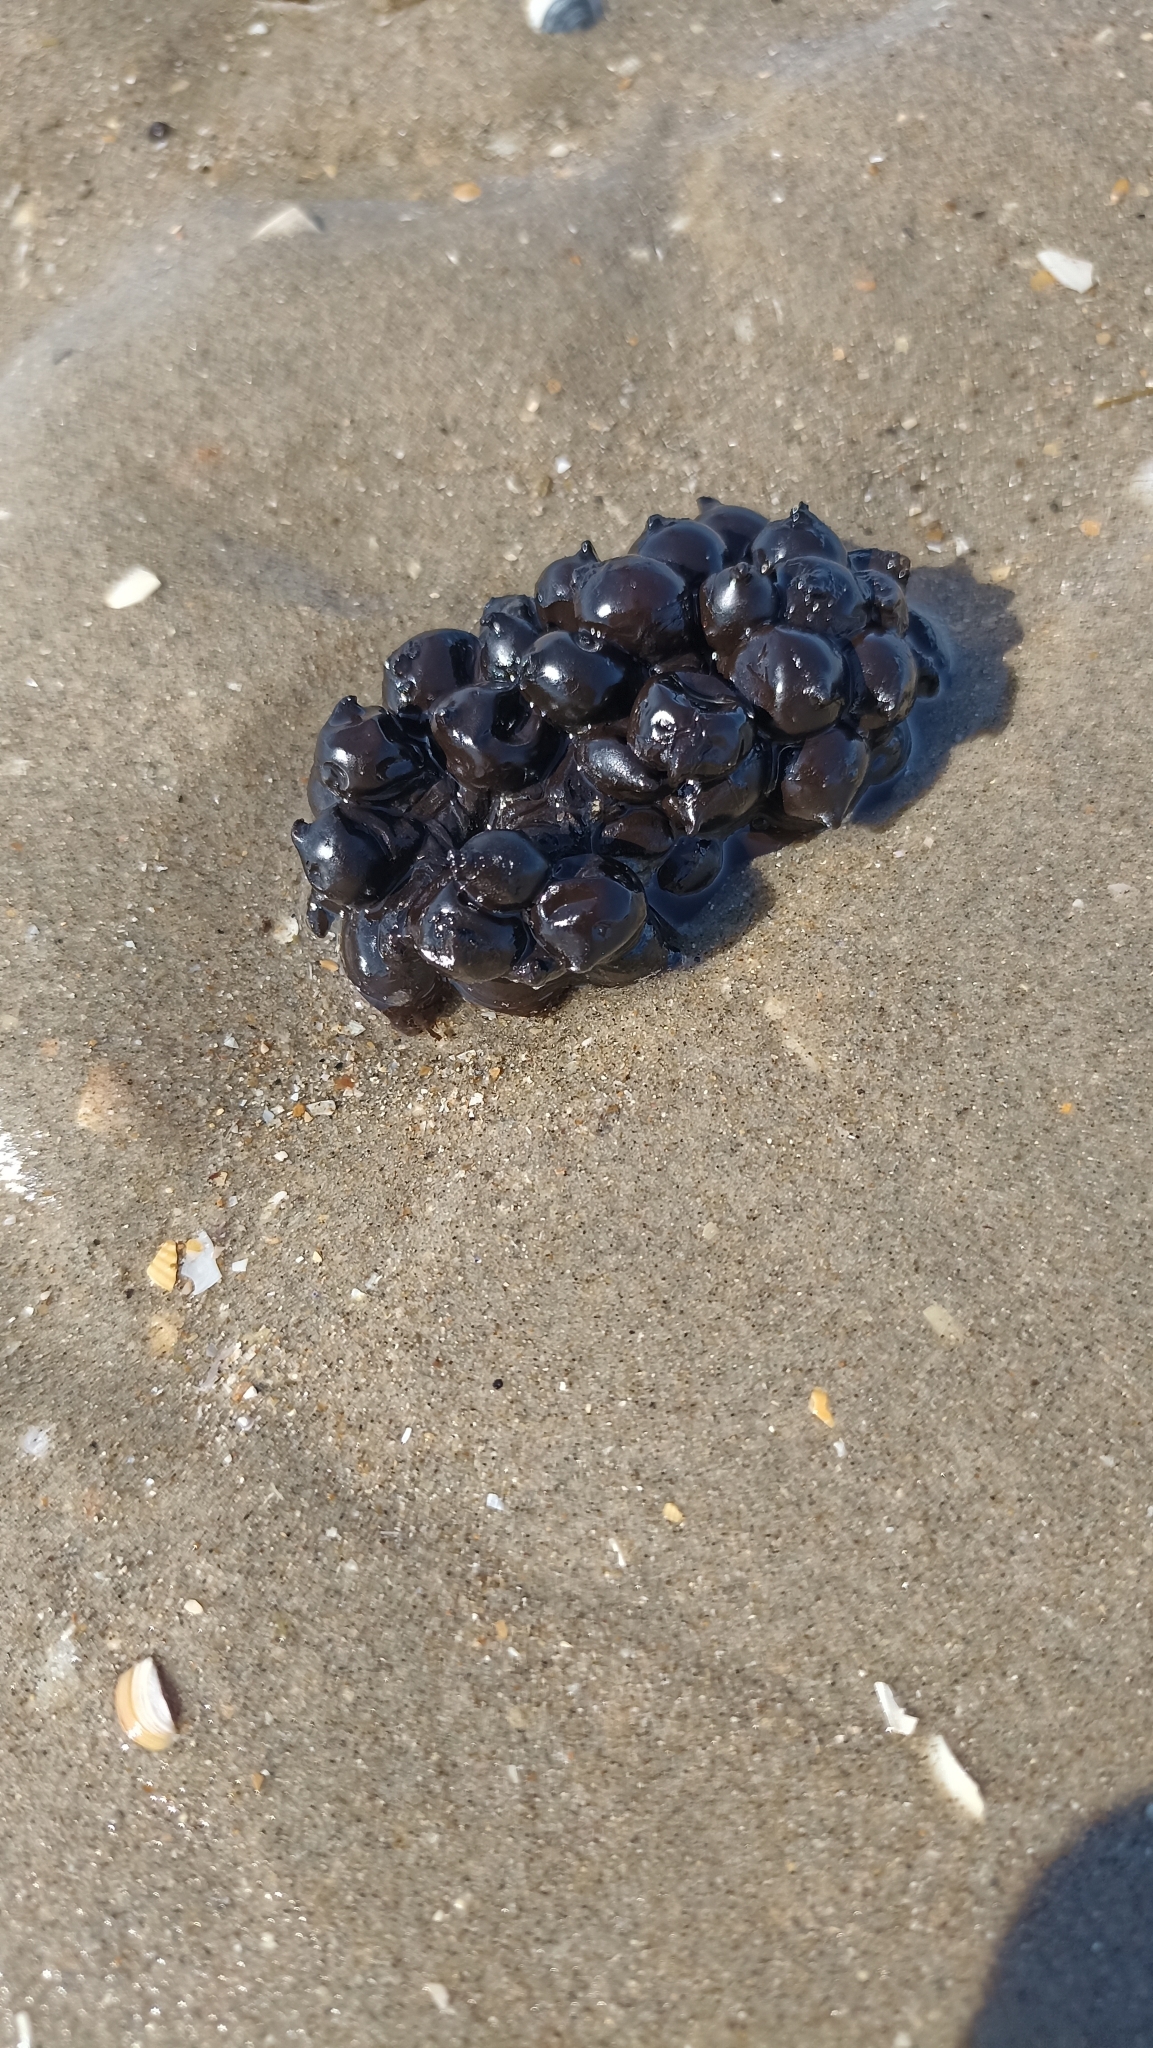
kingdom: Animalia
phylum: Mollusca
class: Cephalopoda
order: Sepiida
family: Sepiidae
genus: Sepia
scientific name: Sepia officinalis
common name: Common cuttlefish
